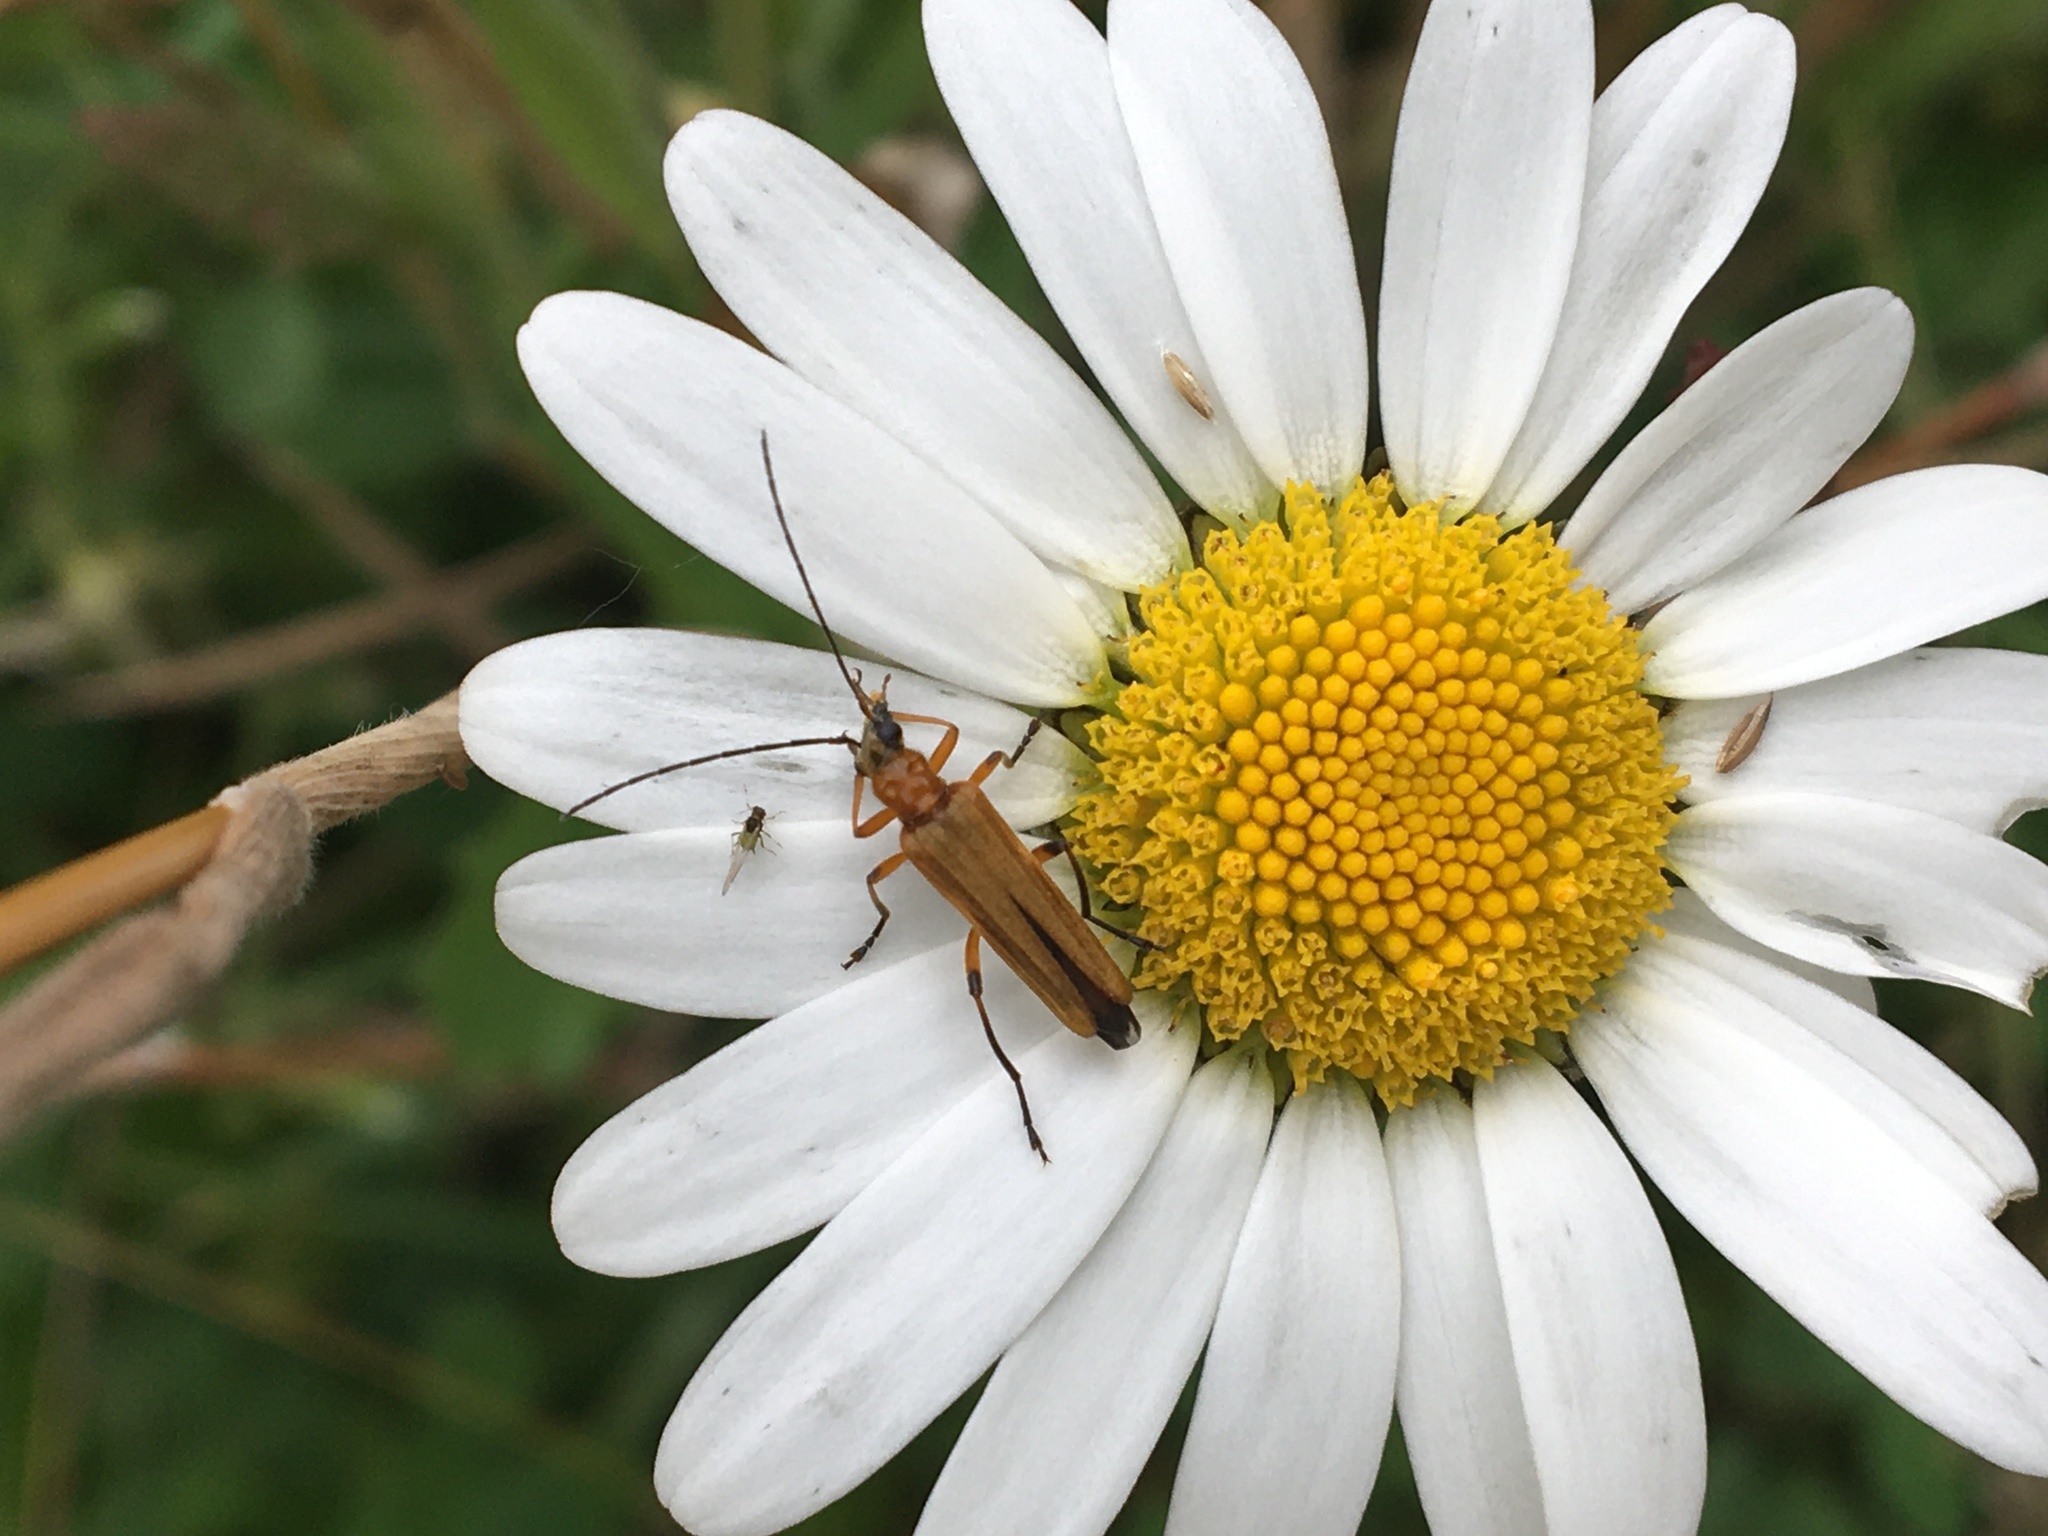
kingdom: Animalia
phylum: Arthropoda
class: Insecta
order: Coleoptera
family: Oedemeridae
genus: Oedemera
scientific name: Oedemera podagrariae
